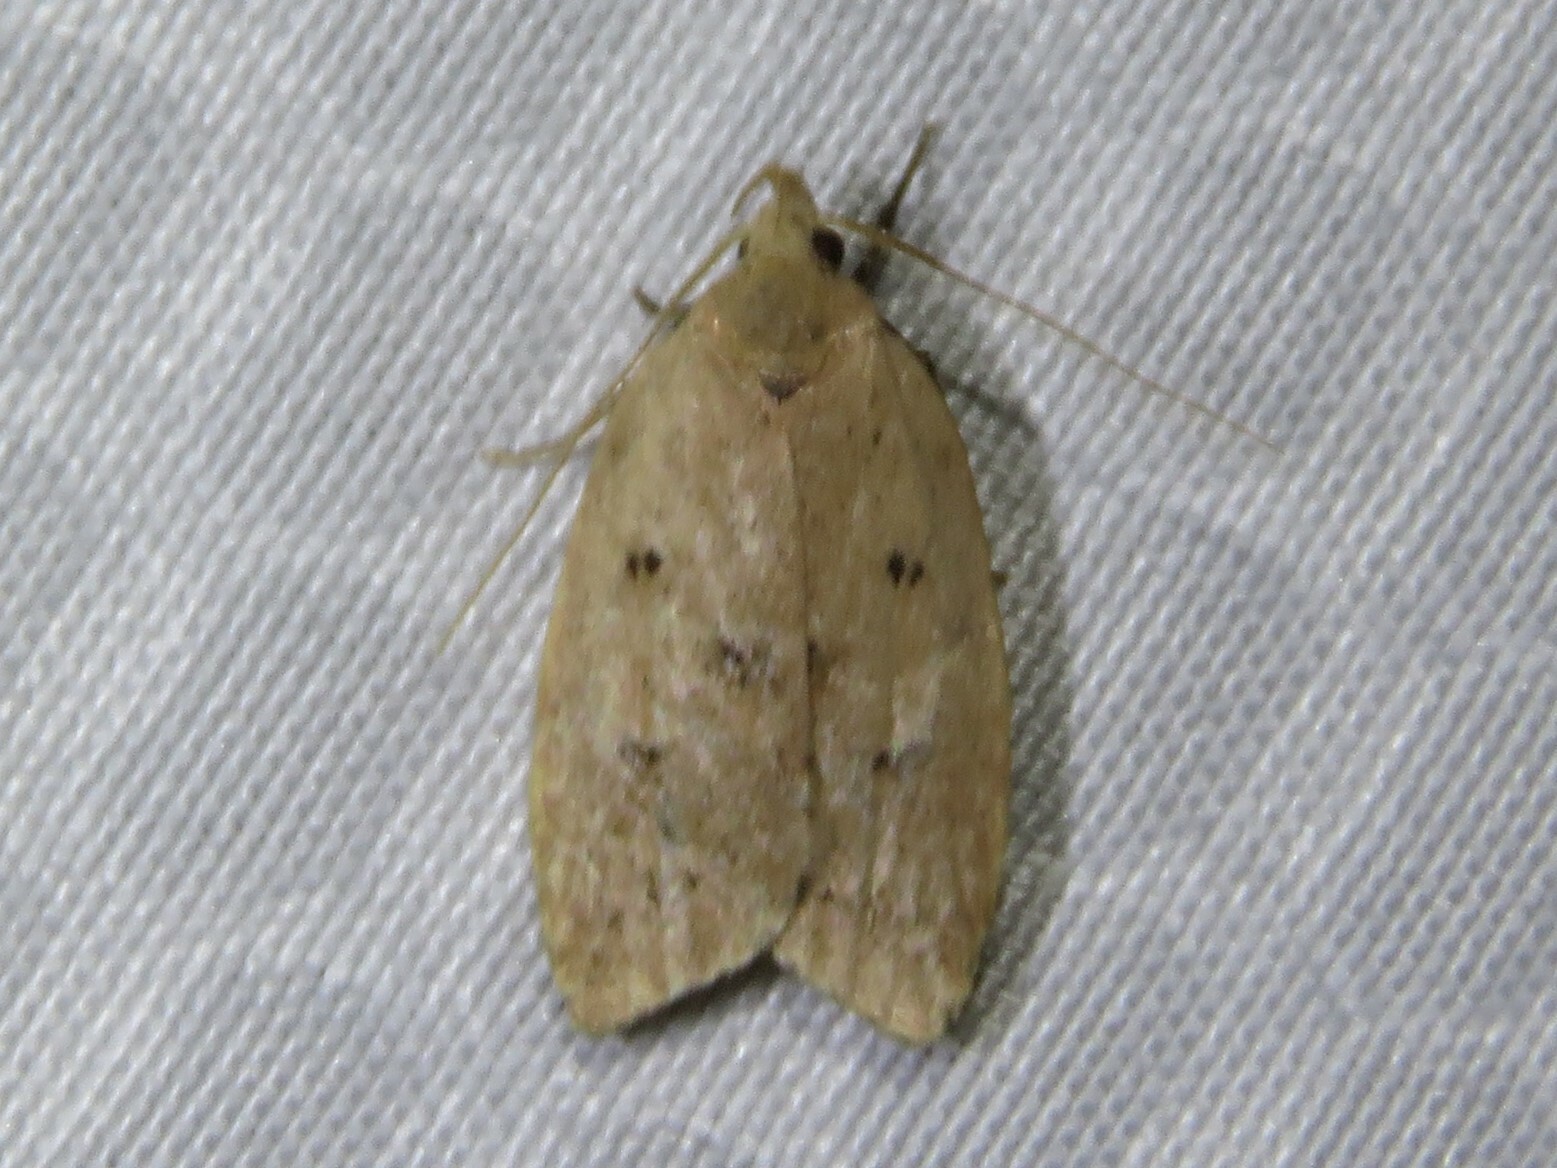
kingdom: Animalia
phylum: Arthropoda
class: Insecta
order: Lepidoptera
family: Peleopodidae
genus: Machimia
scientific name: Machimia tentoriferella
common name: Gold-striped leaftier moth
